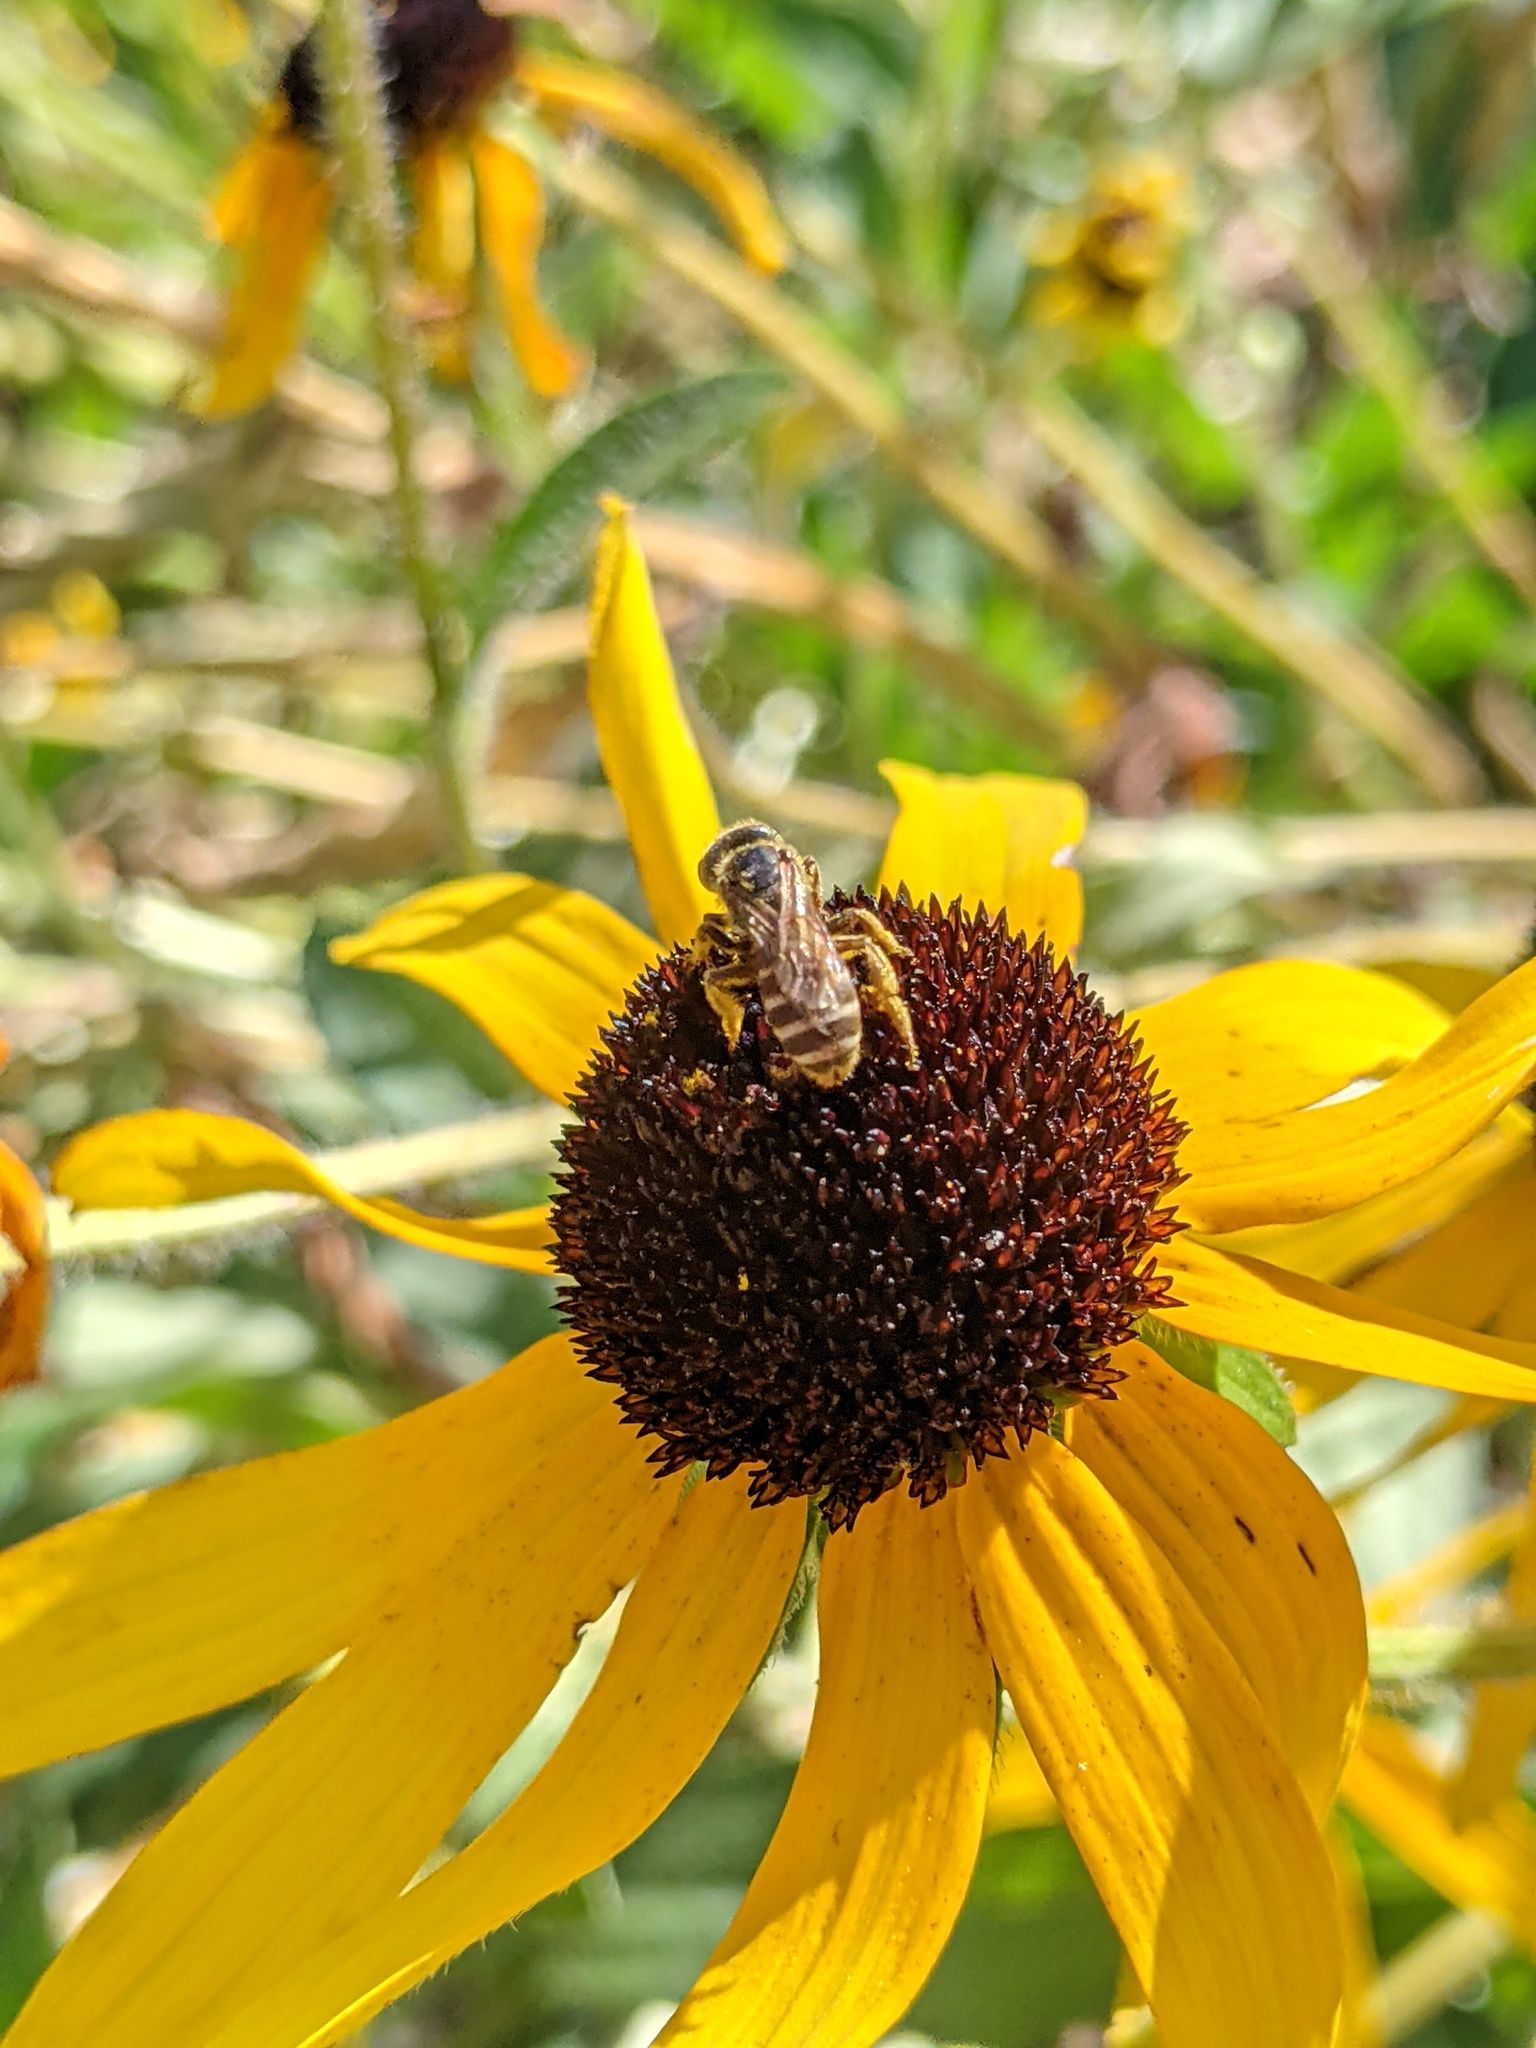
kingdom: Animalia
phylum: Arthropoda
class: Insecta
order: Hymenoptera
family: Halictidae
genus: Halictus
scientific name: Halictus ligatus
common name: Ligated furrow bee
